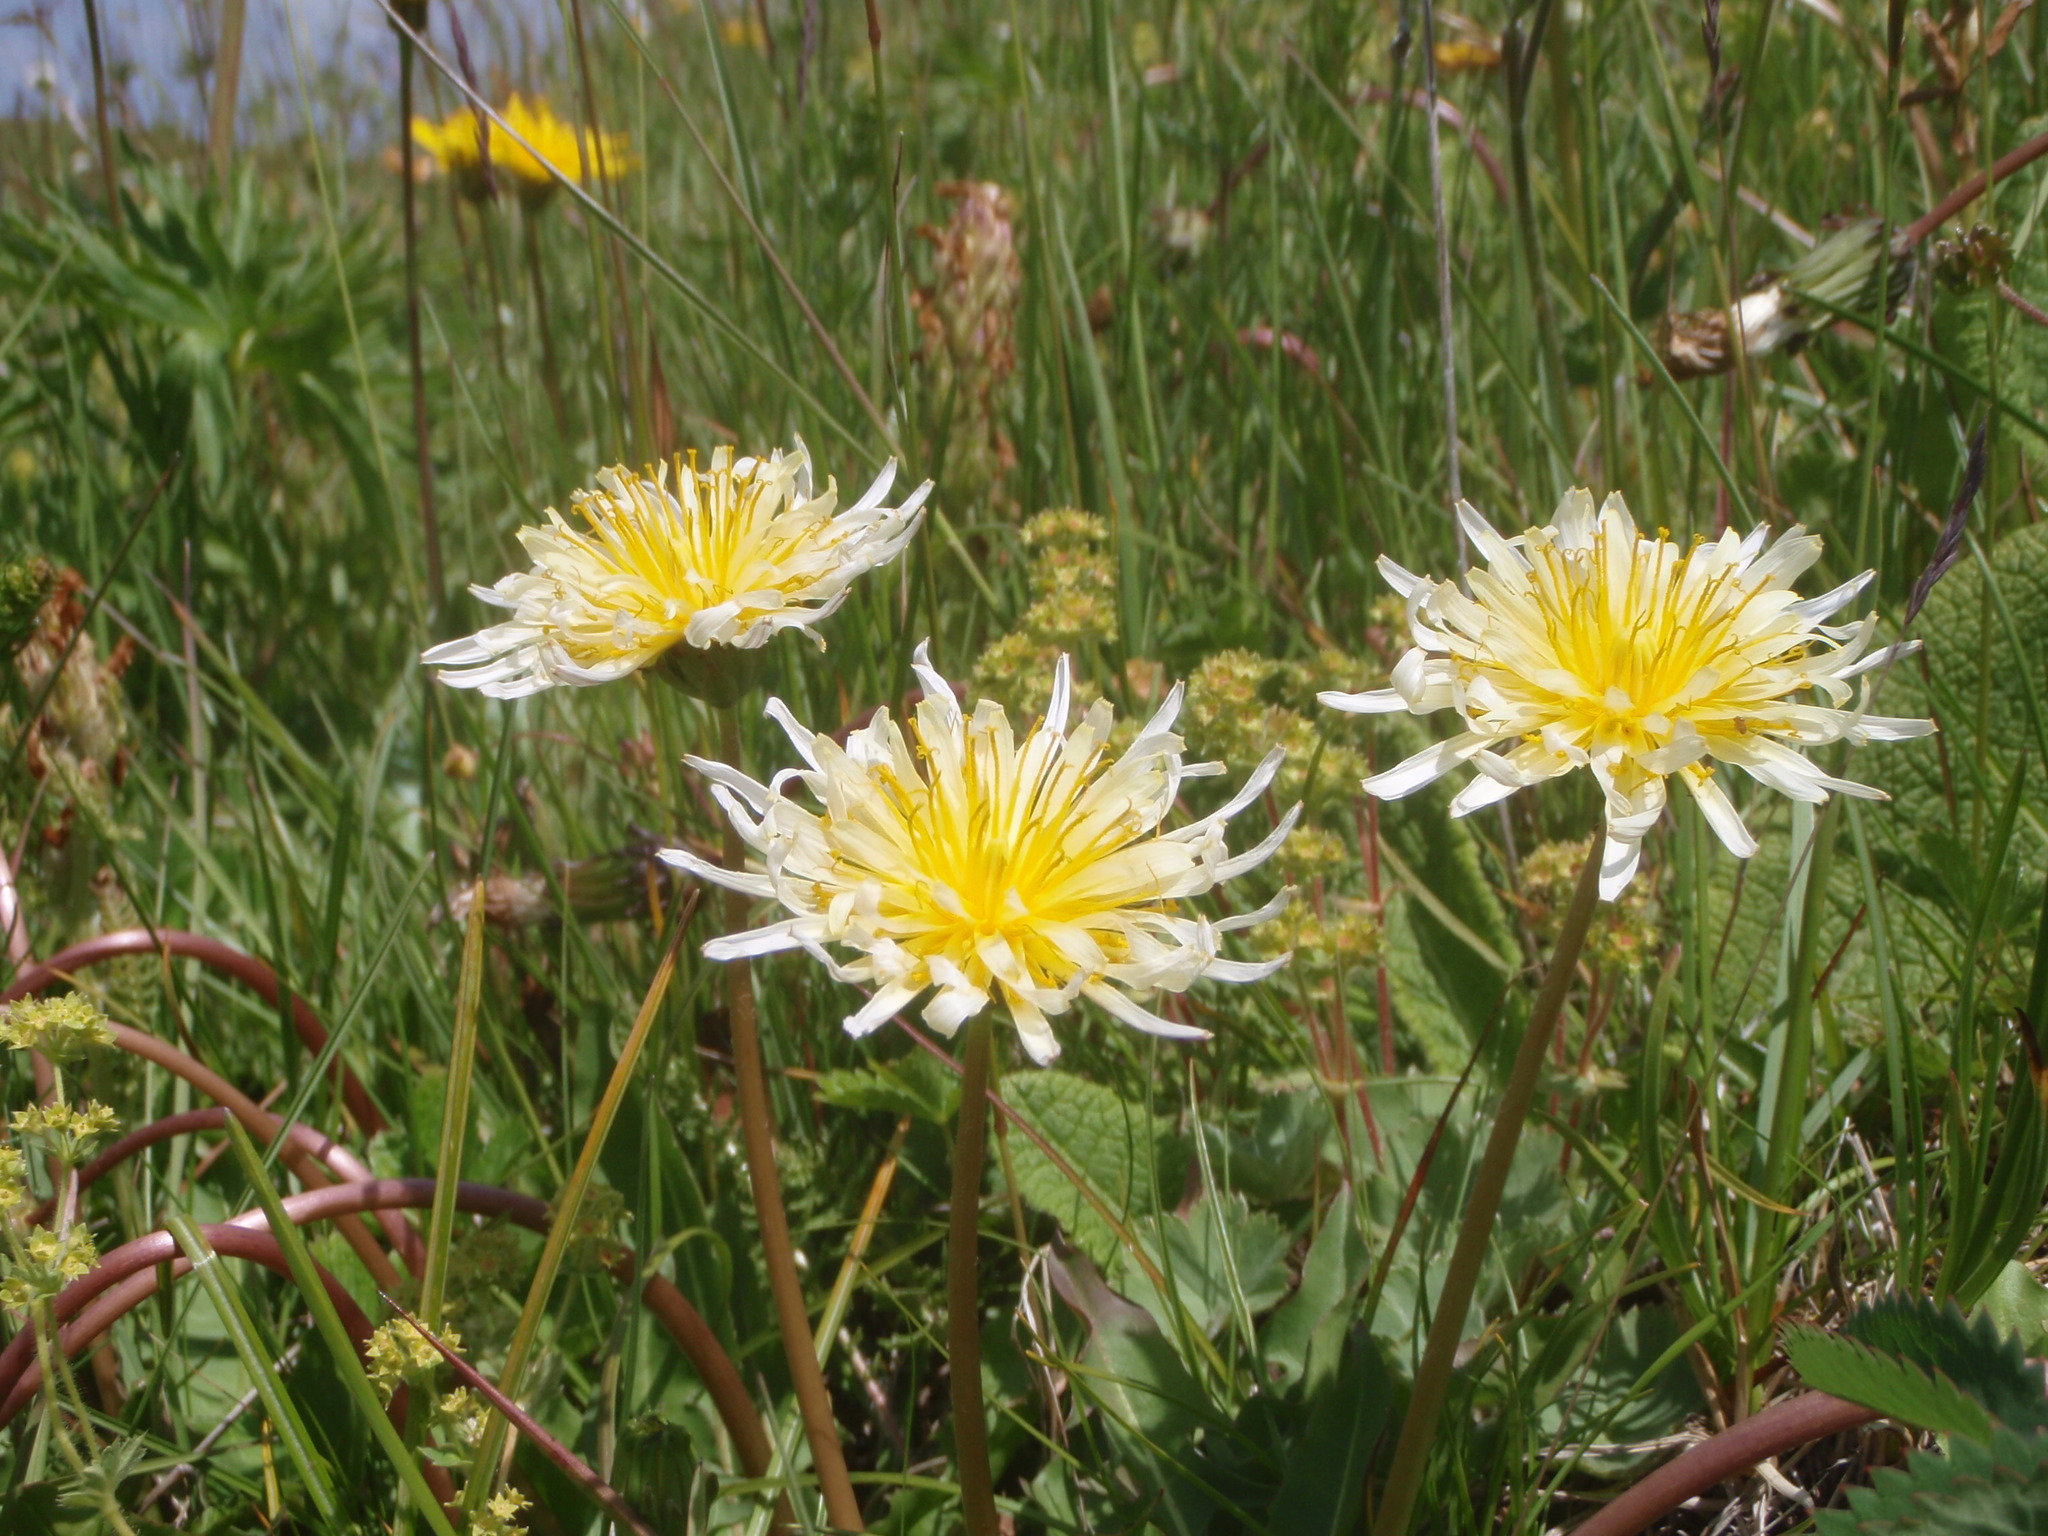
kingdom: Plantae
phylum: Tracheophyta
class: Magnoliopsida
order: Asterales
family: Asteraceae
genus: Taraxacum
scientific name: Taraxacum confusum
